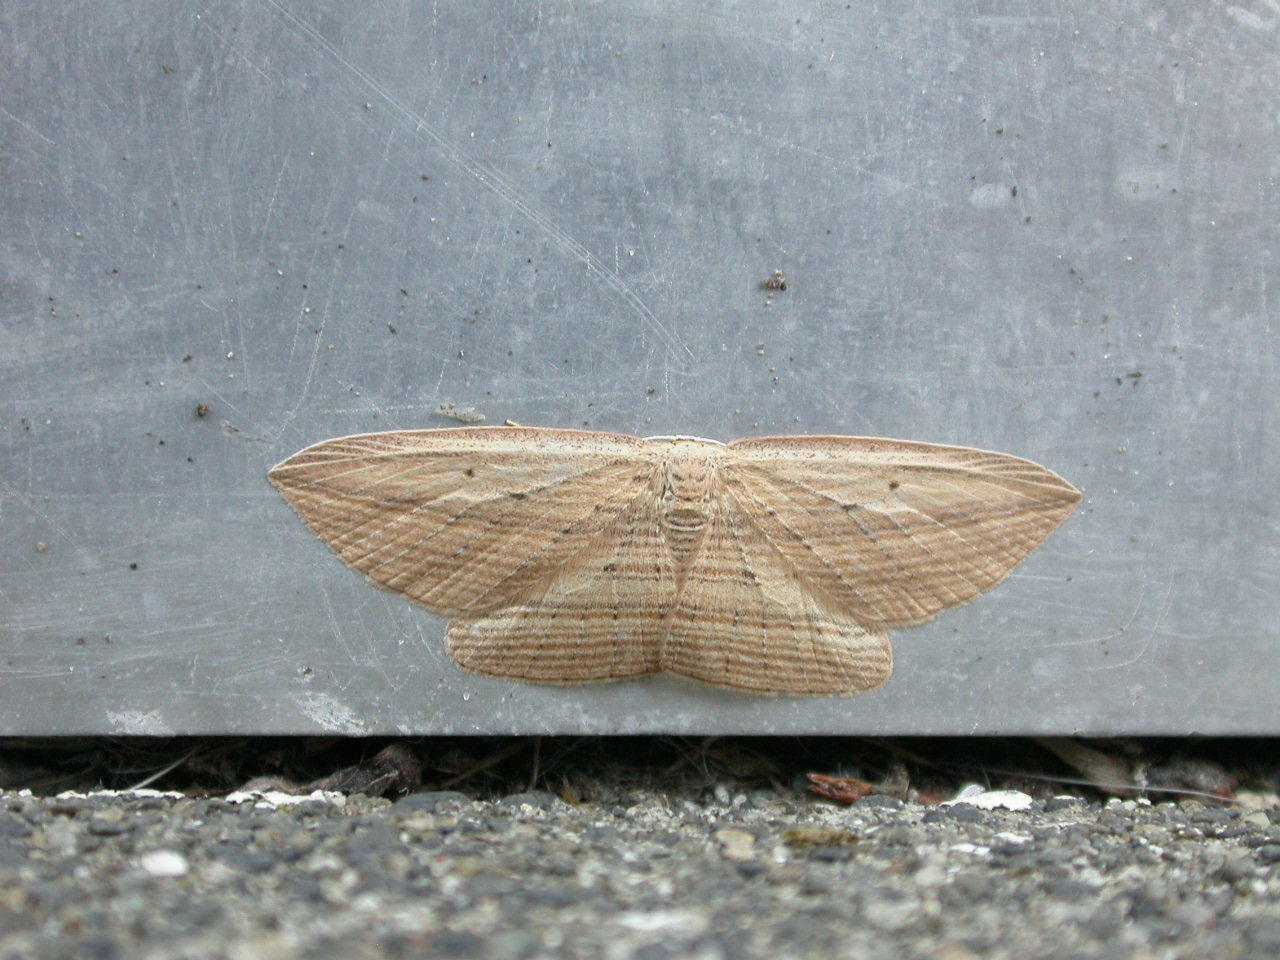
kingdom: Animalia
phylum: Arthropoda
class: Insecta
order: Lepidoptera
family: Geometridae
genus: Epiphryne
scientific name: Epiphryne verriculata
